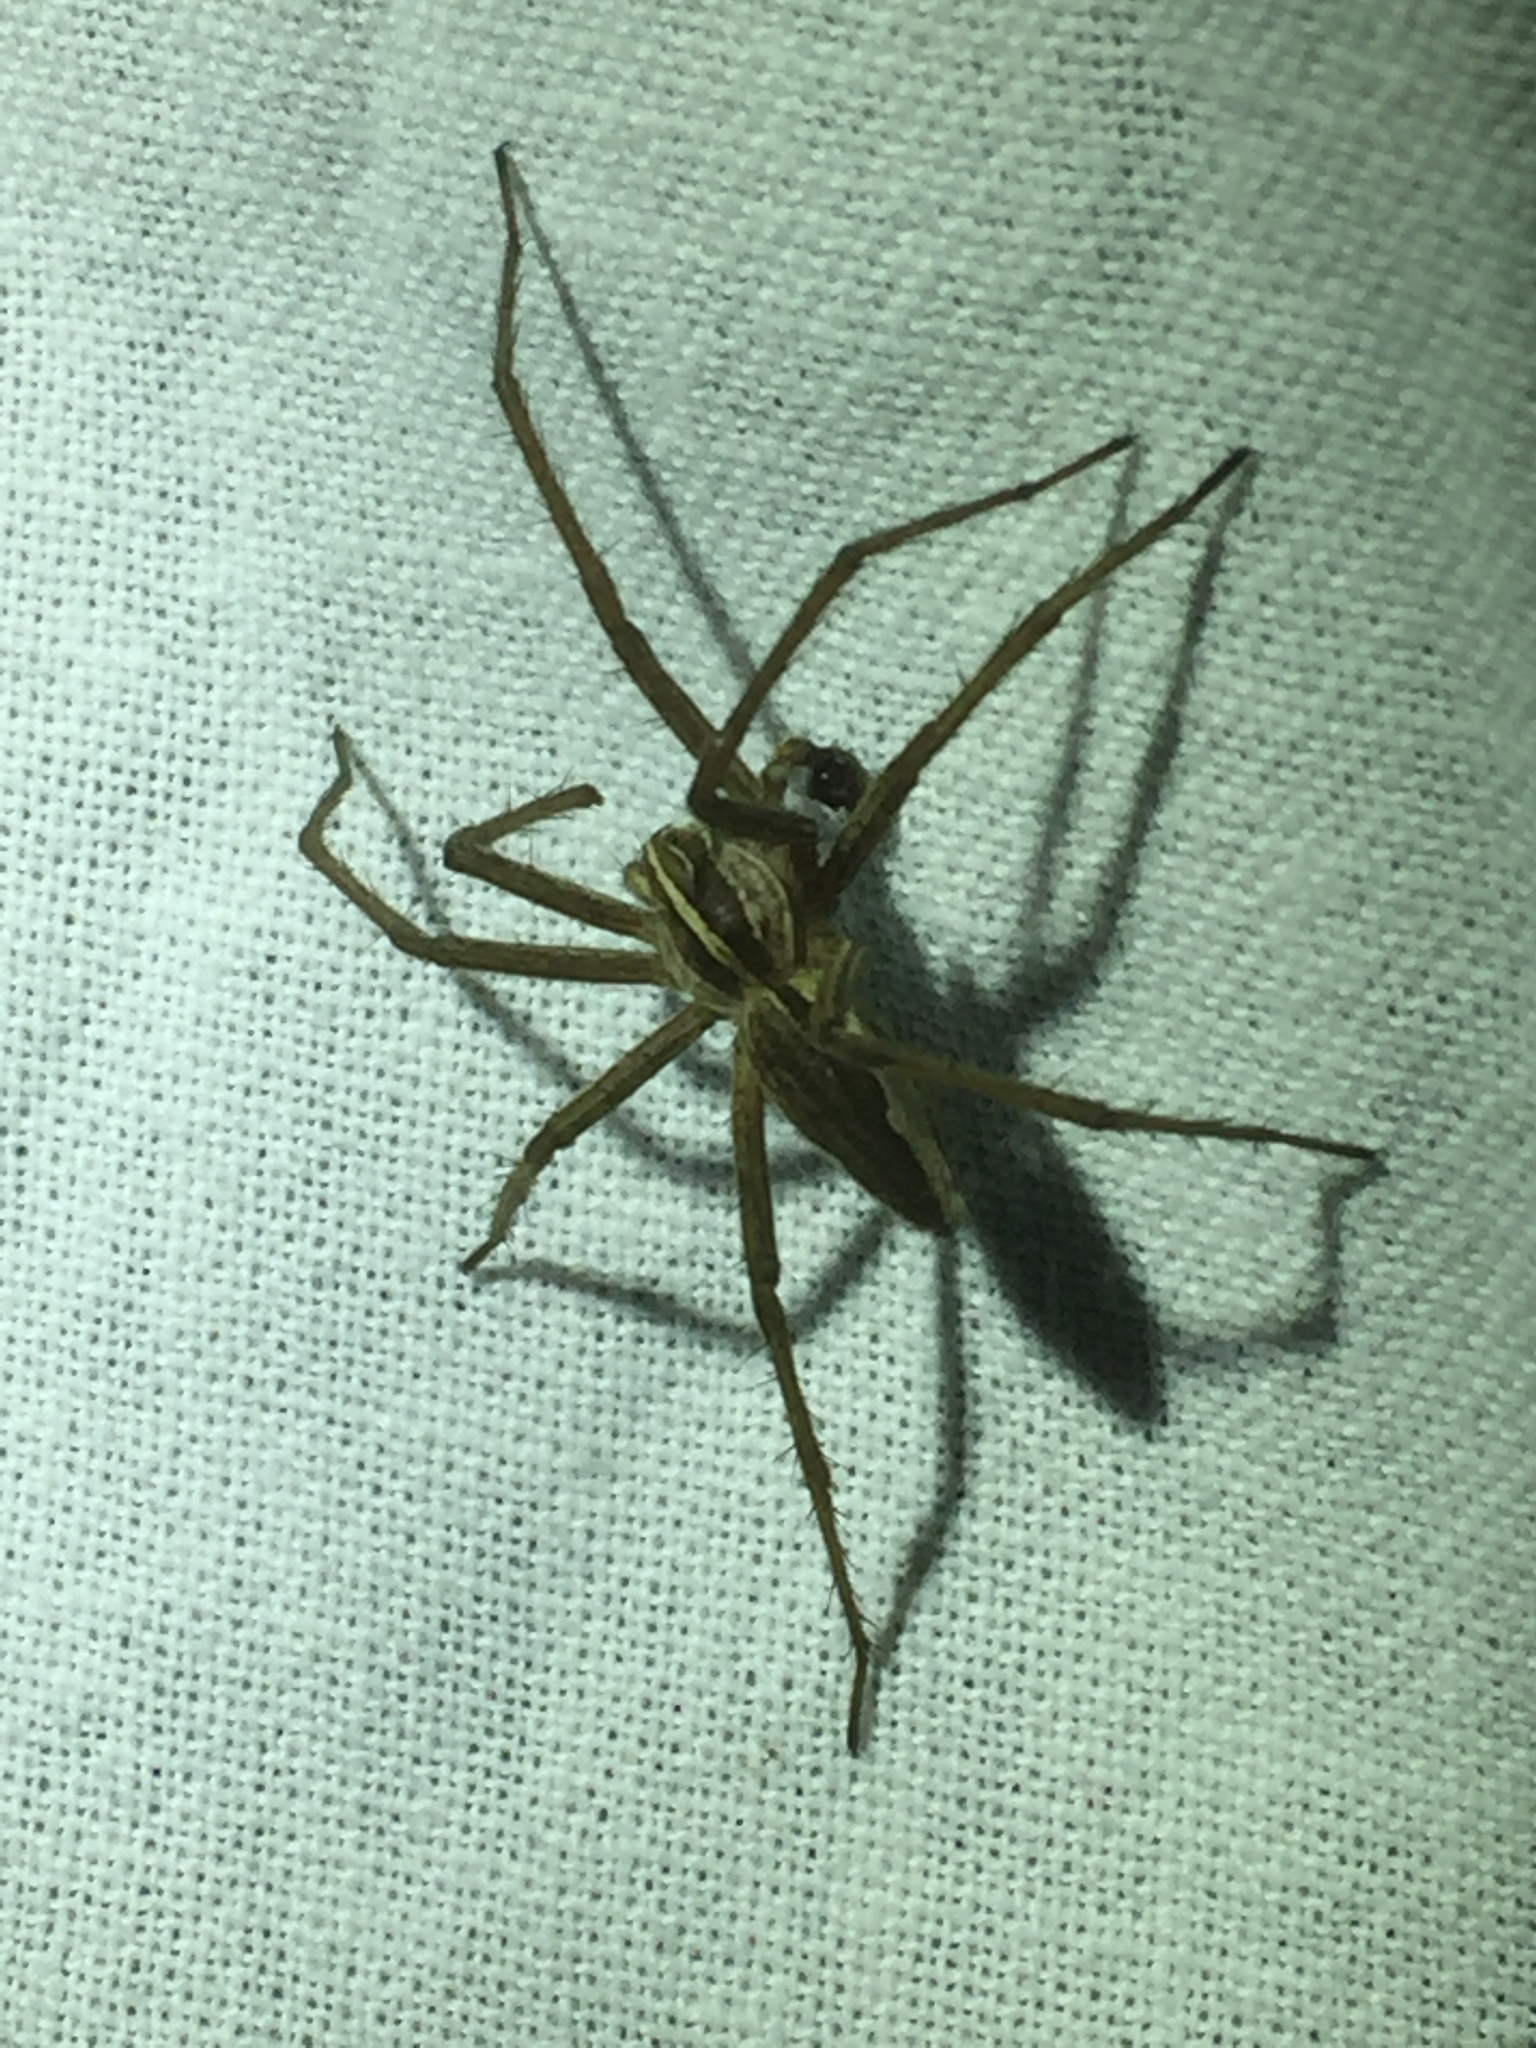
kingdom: Animalia
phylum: Arthropoda
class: Arachnida
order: Araneae
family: Pisauridae
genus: Pisaura
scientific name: Pisaura mirabilis
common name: Tent spider
